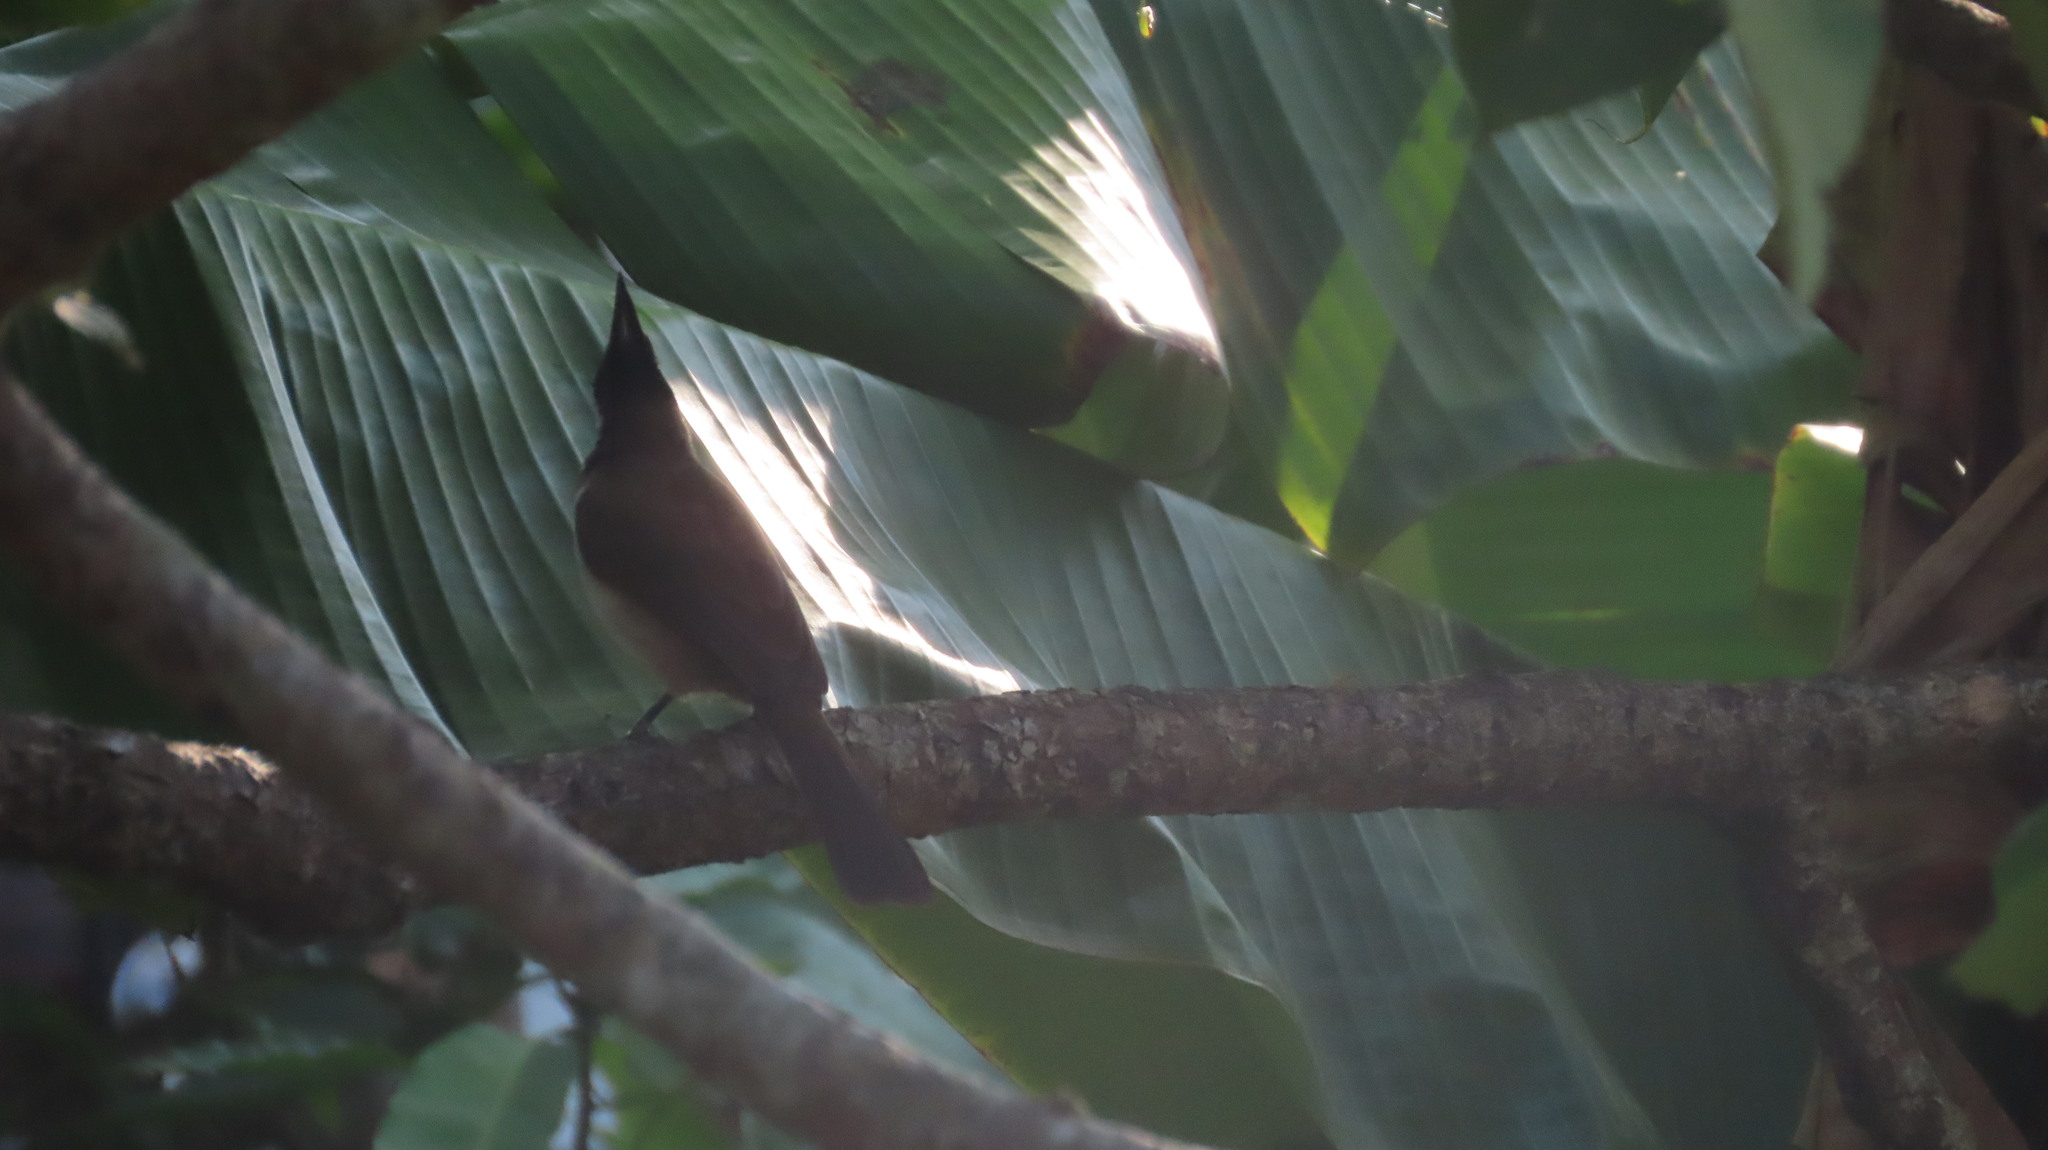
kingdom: Animalia
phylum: Chordata
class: Aves
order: Passeriformes
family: Pycnonotidae
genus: Pycnonotus
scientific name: Pycnonotus jocosus
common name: Red-whiskered bulbul
